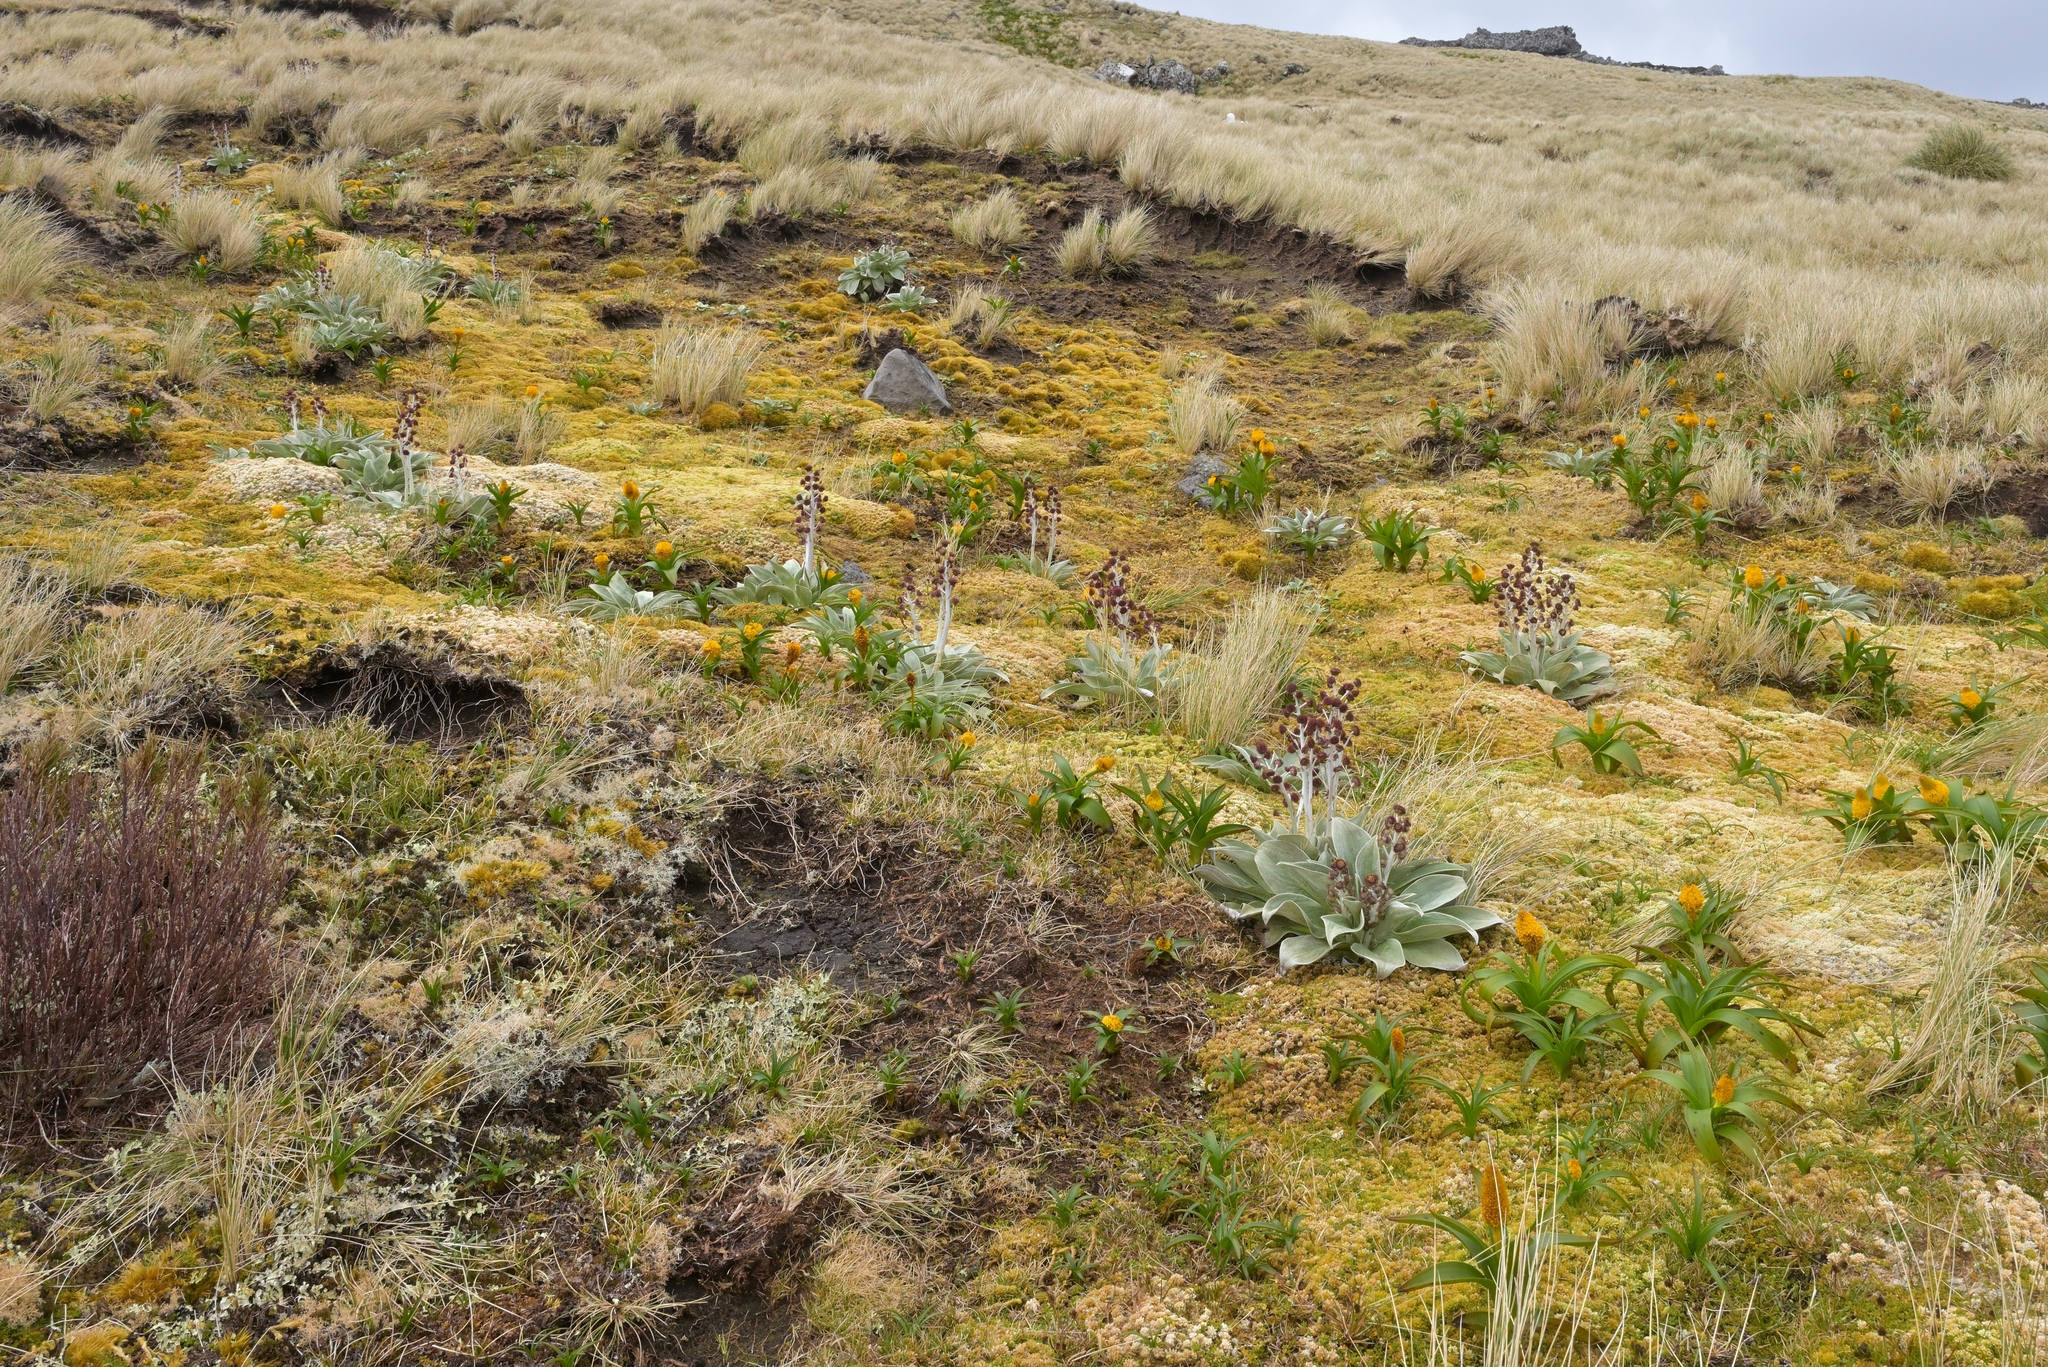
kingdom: Plantae
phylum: Tracheophyta
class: Magnoliopsida
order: Asterales
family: Asteraceae
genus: Pleurophyllum
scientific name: Pleurophyllum hookeri
